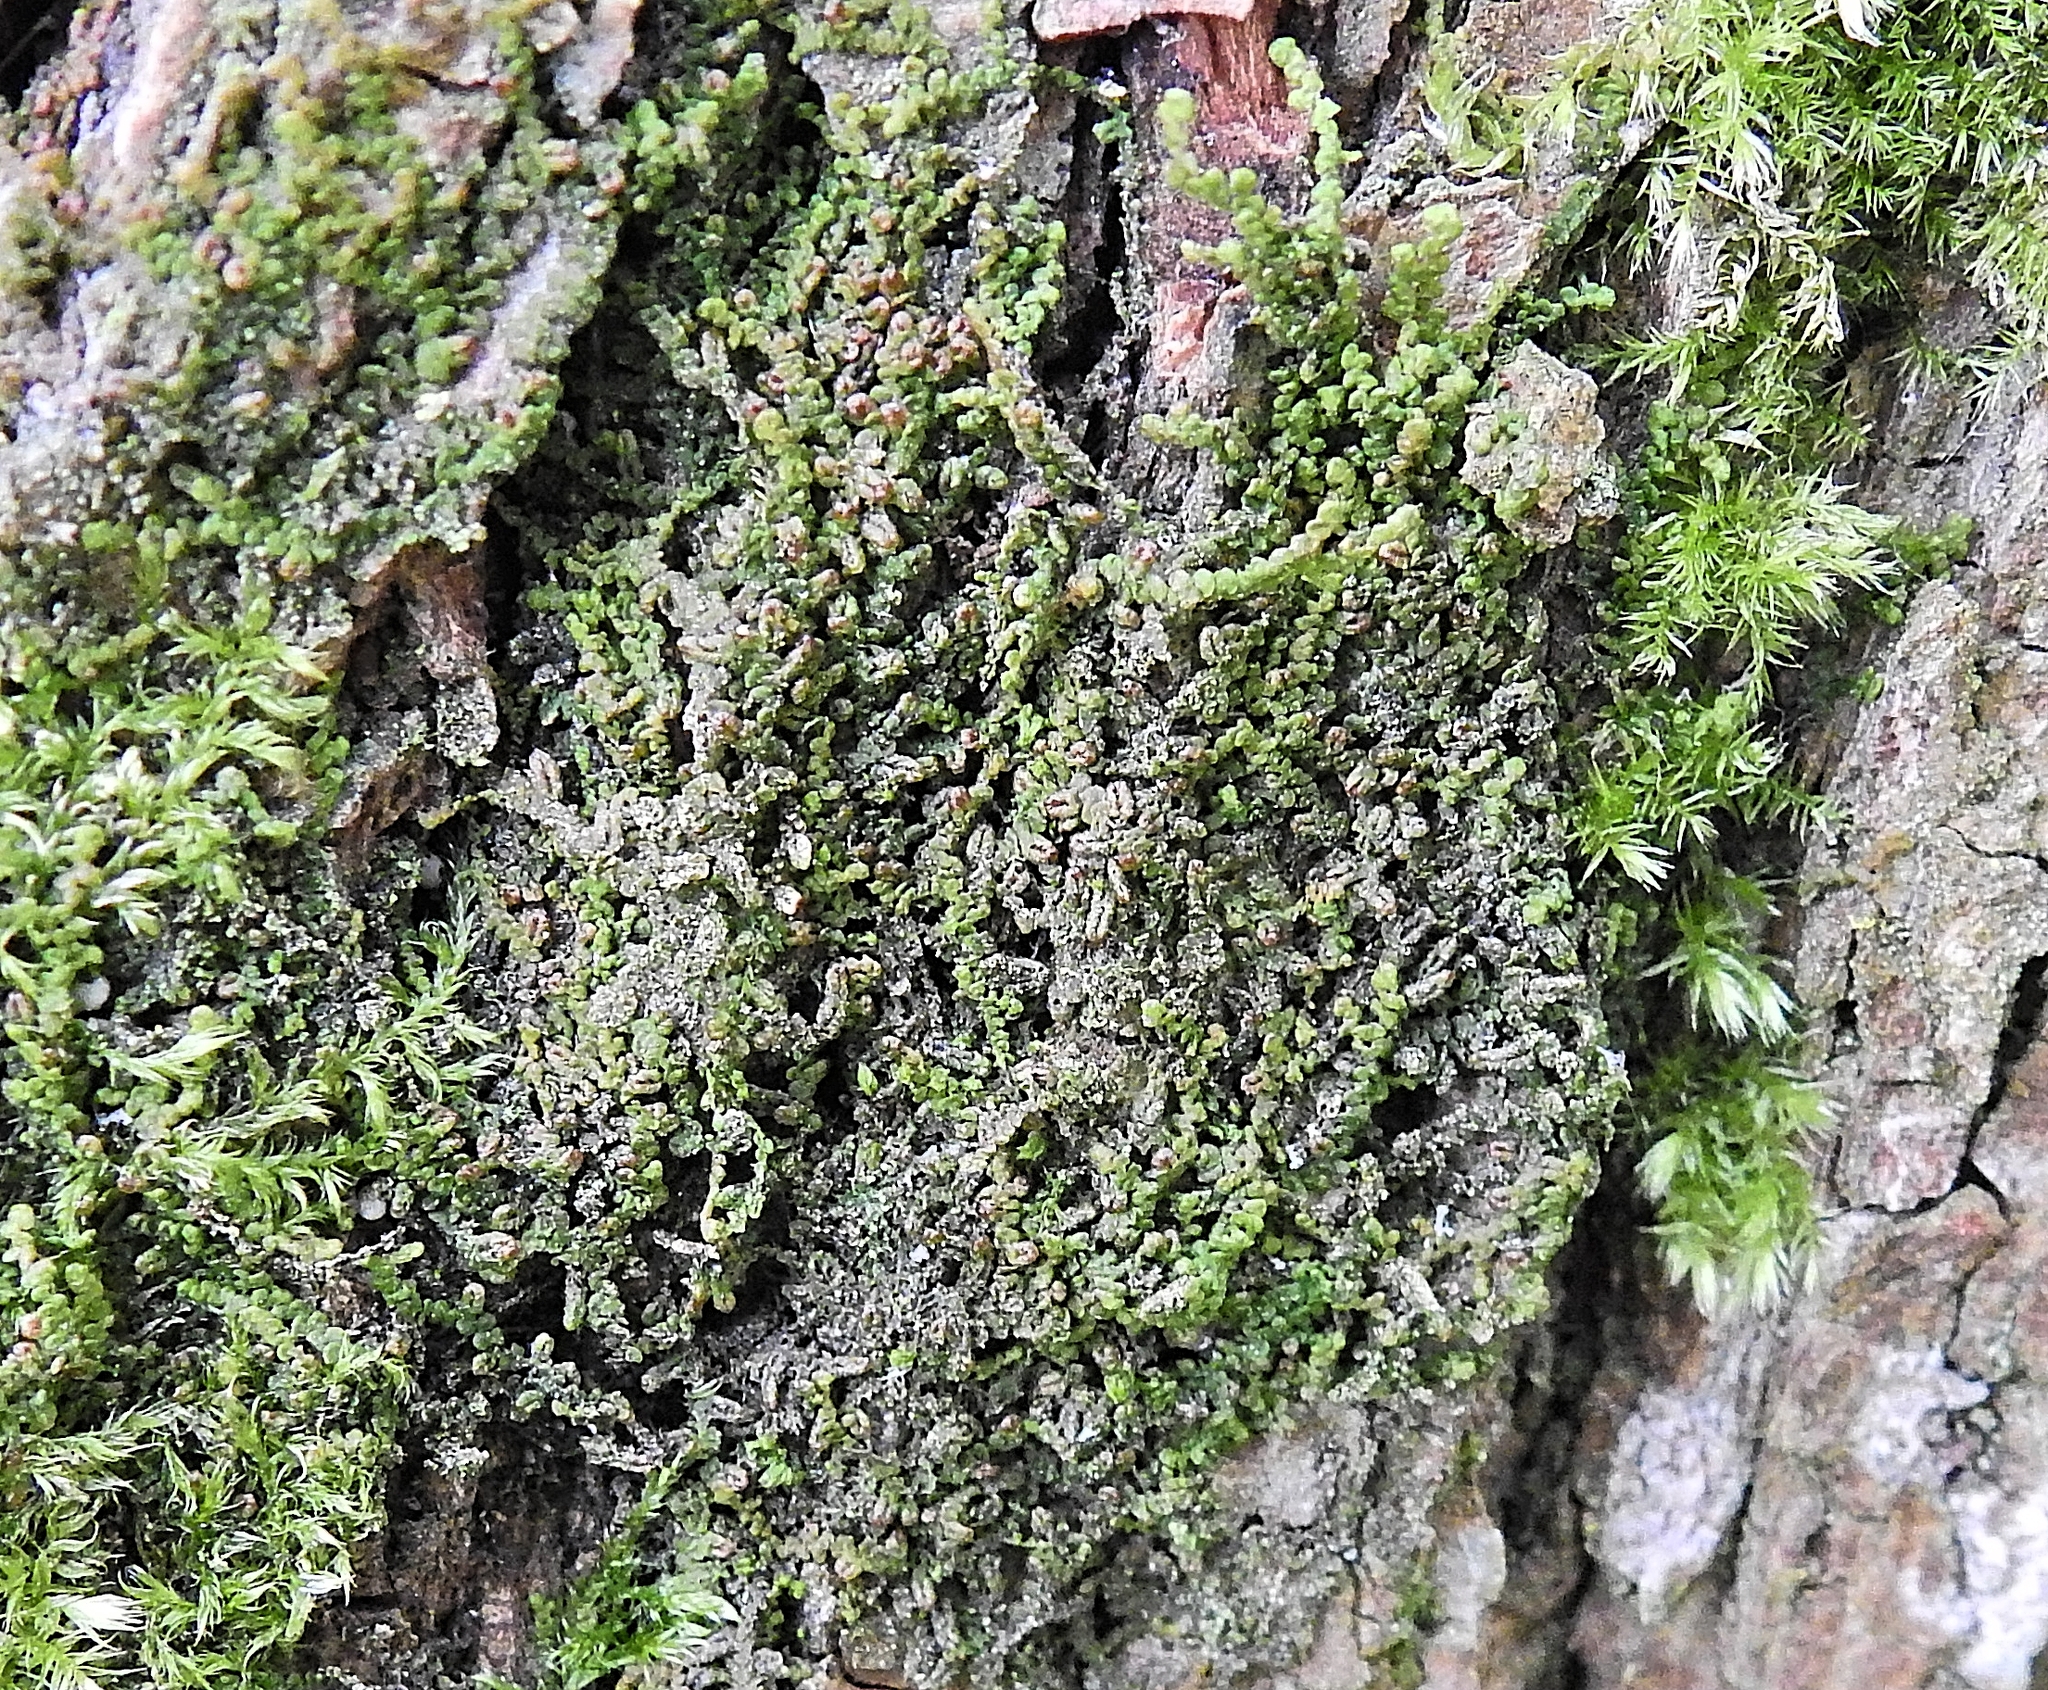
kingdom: Plantae
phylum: Marchantiophyta
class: Jungermanniopsida
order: Porellales
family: Frullaniaceae
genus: Frullania
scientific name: Frullania dilatata
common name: Dilated scalewort
